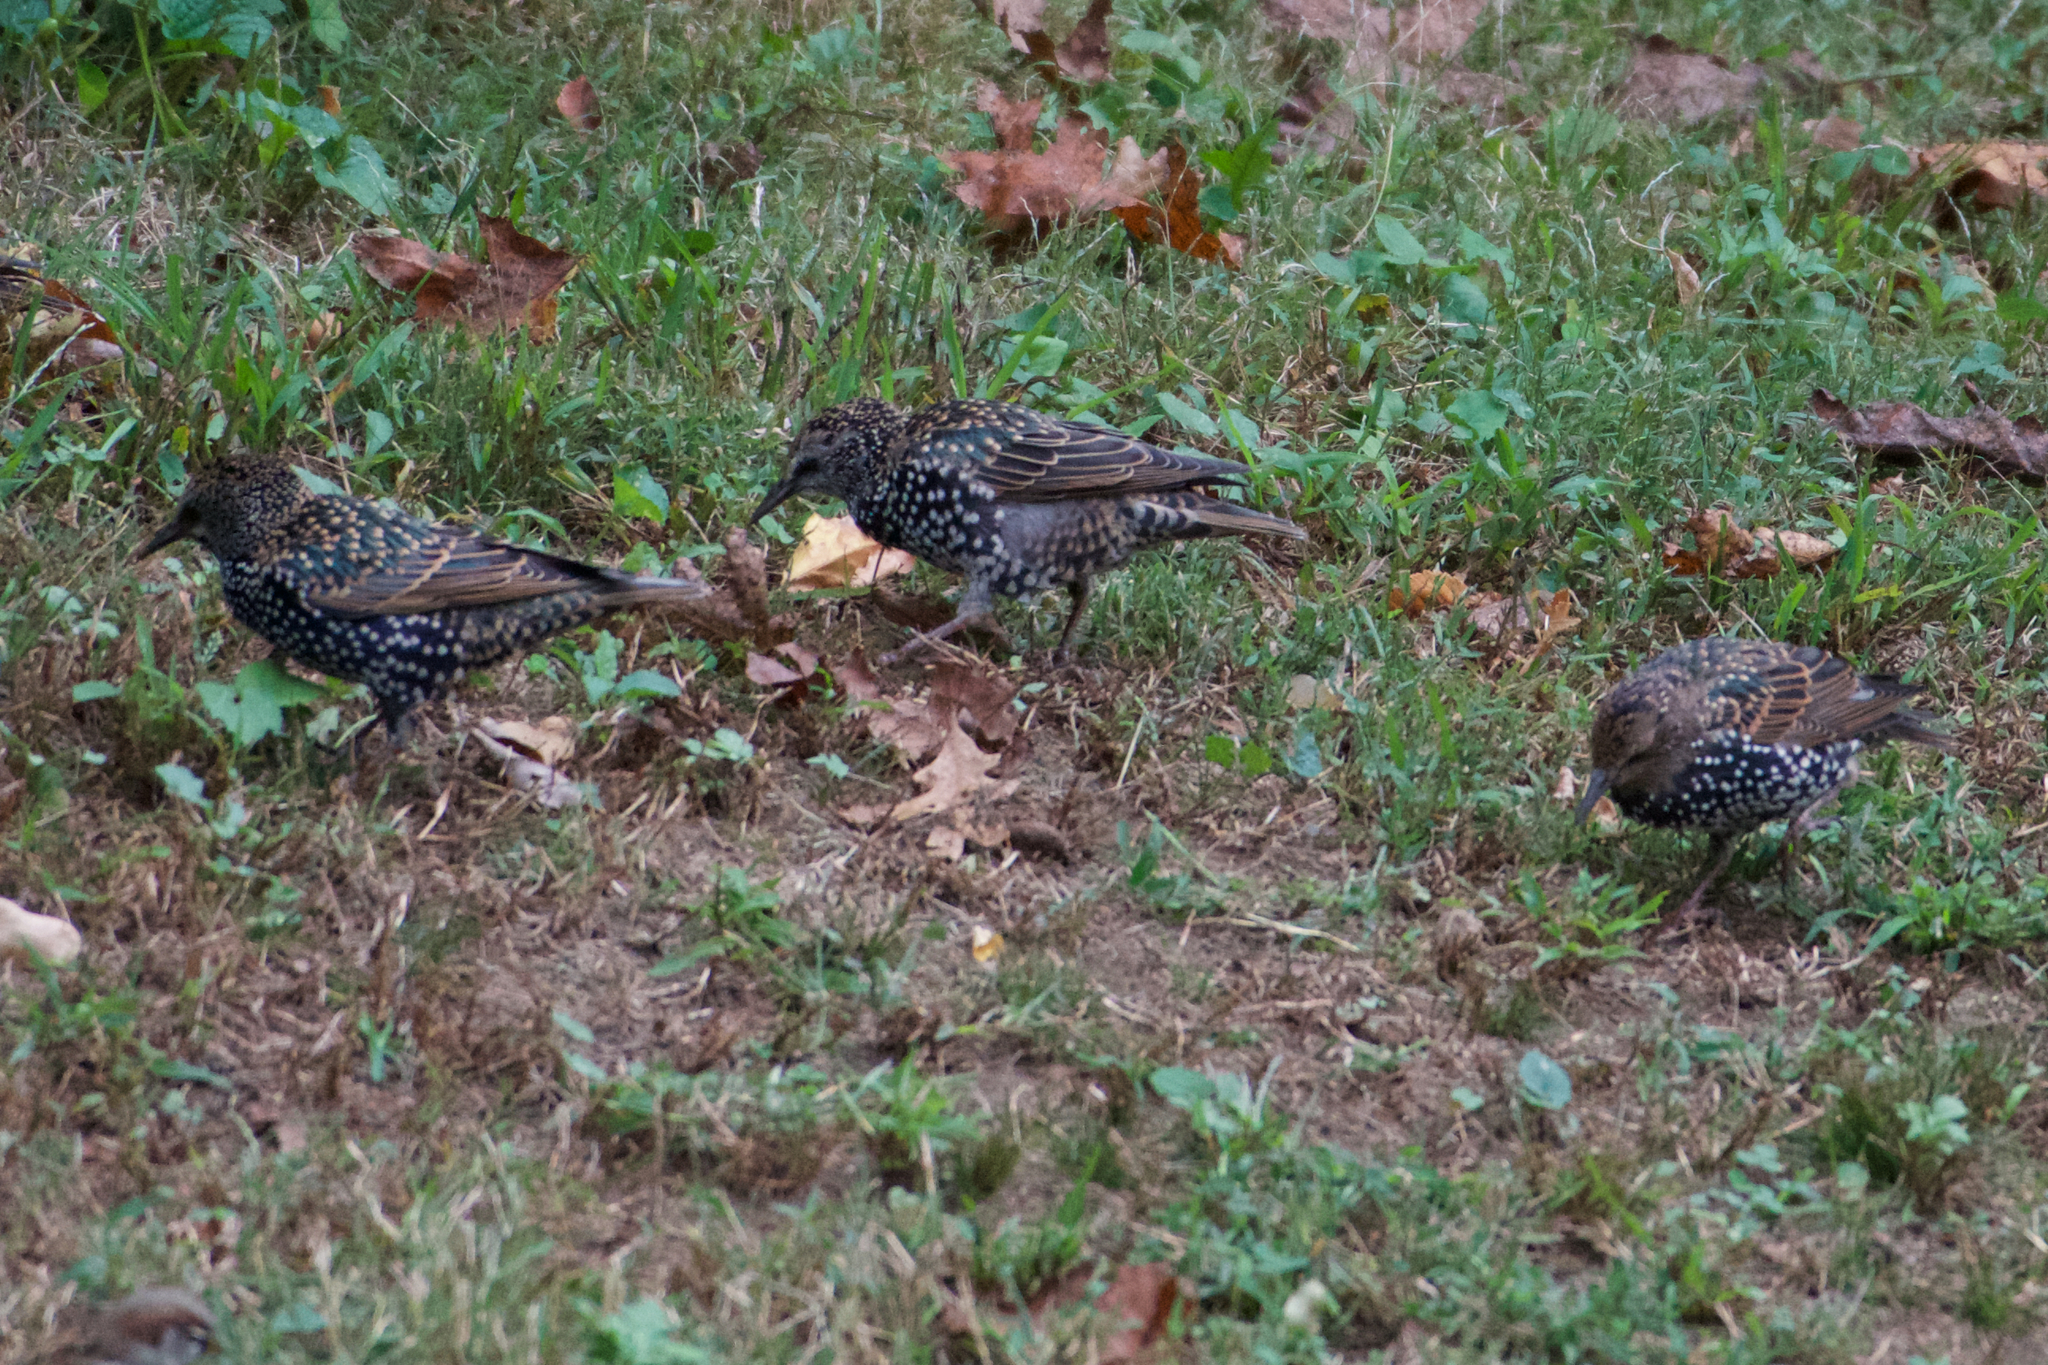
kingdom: Animalia
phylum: Chordata
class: Aves
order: Passeriformes
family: Sturnidae
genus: Sturnus
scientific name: Sturnus vulgaris
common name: Common starling
